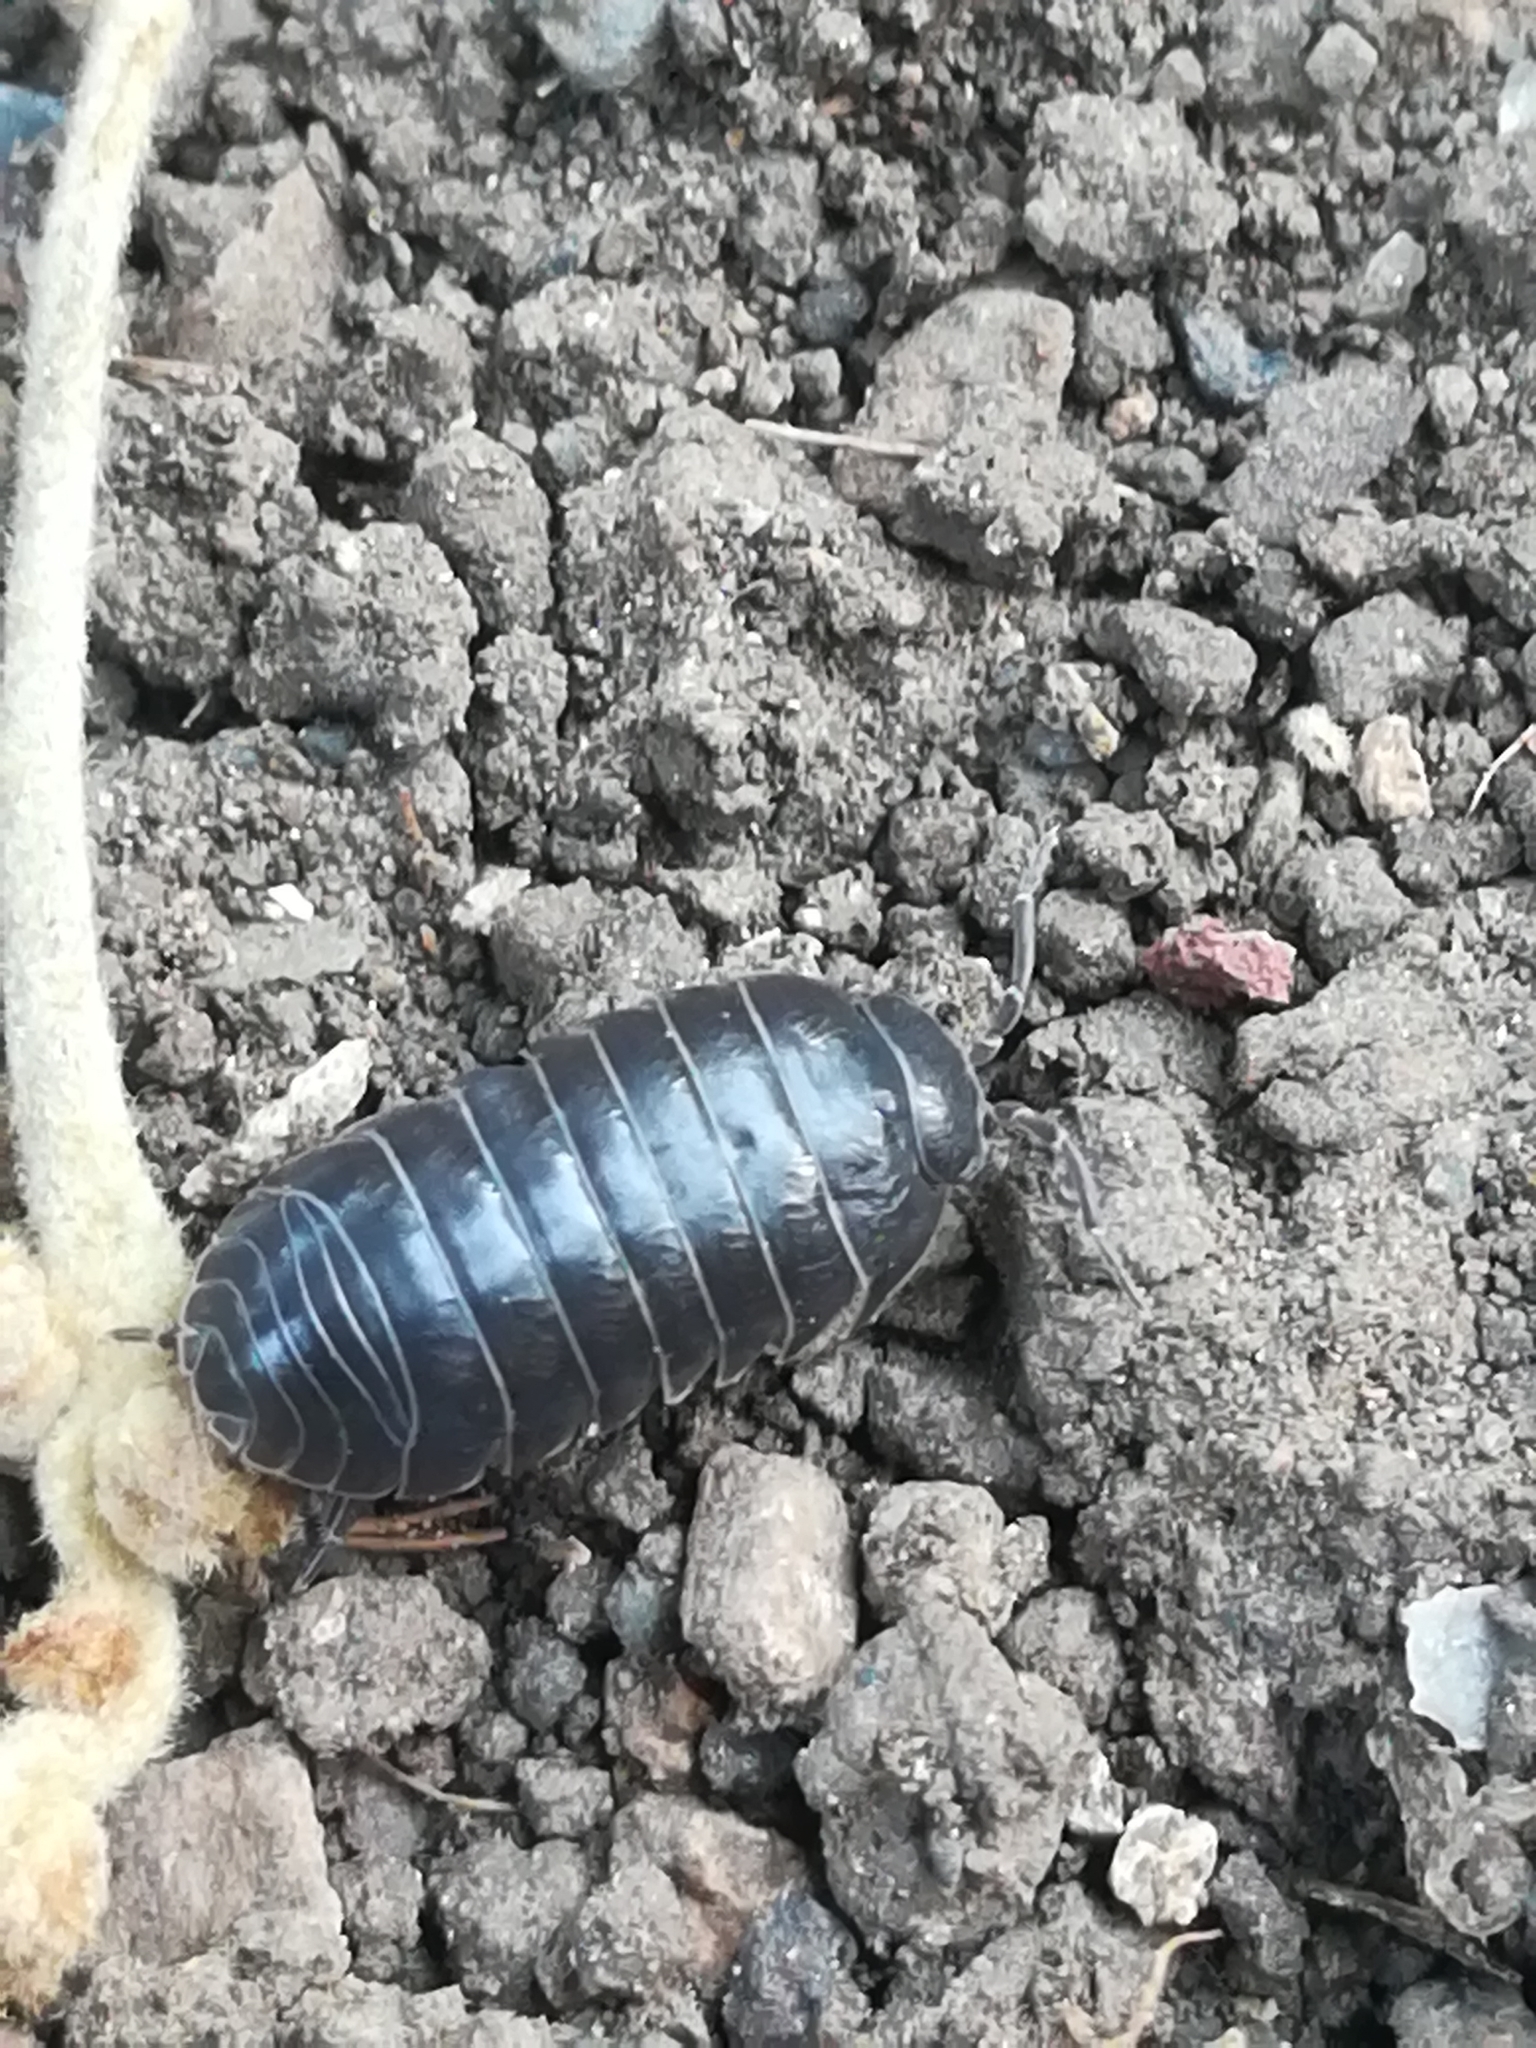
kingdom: Animalia
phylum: Arthropoda
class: Malacostraca
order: Isopoda
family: Armadillidiidae
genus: Armadillidium
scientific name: Armadillidium vulgare
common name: Common pill woodlouse
